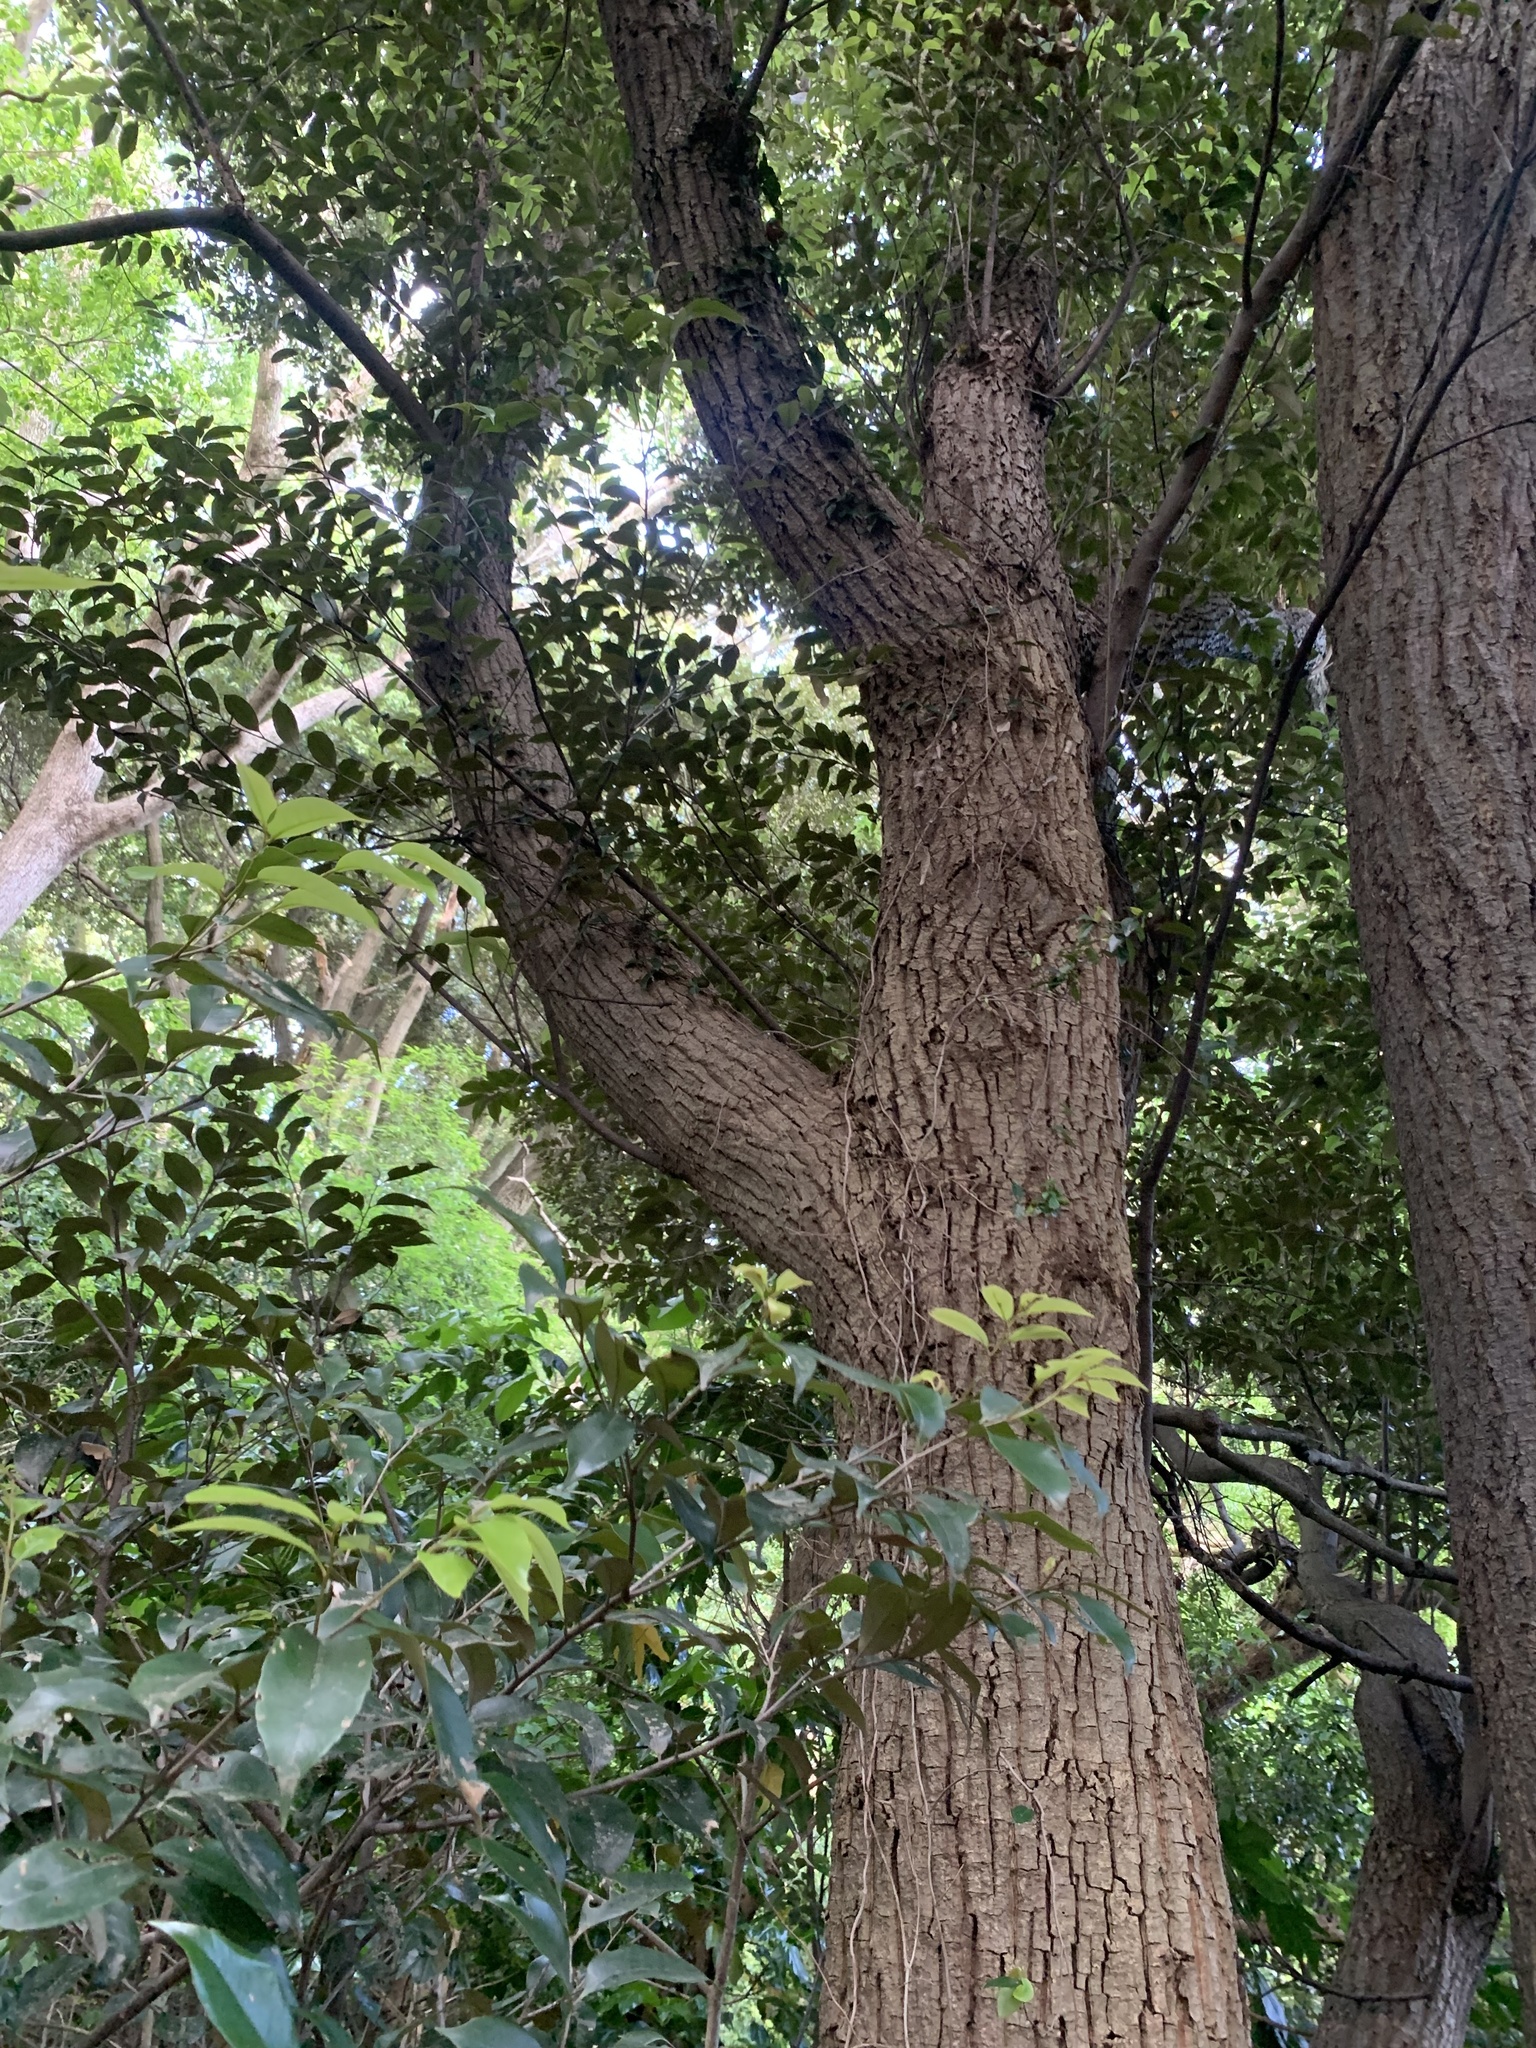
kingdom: Plantae
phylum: Tracheophyta
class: Magnoliopsida
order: Fagales
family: Fagaceae
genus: Castanopsis
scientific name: Castanopsis sieboldii
